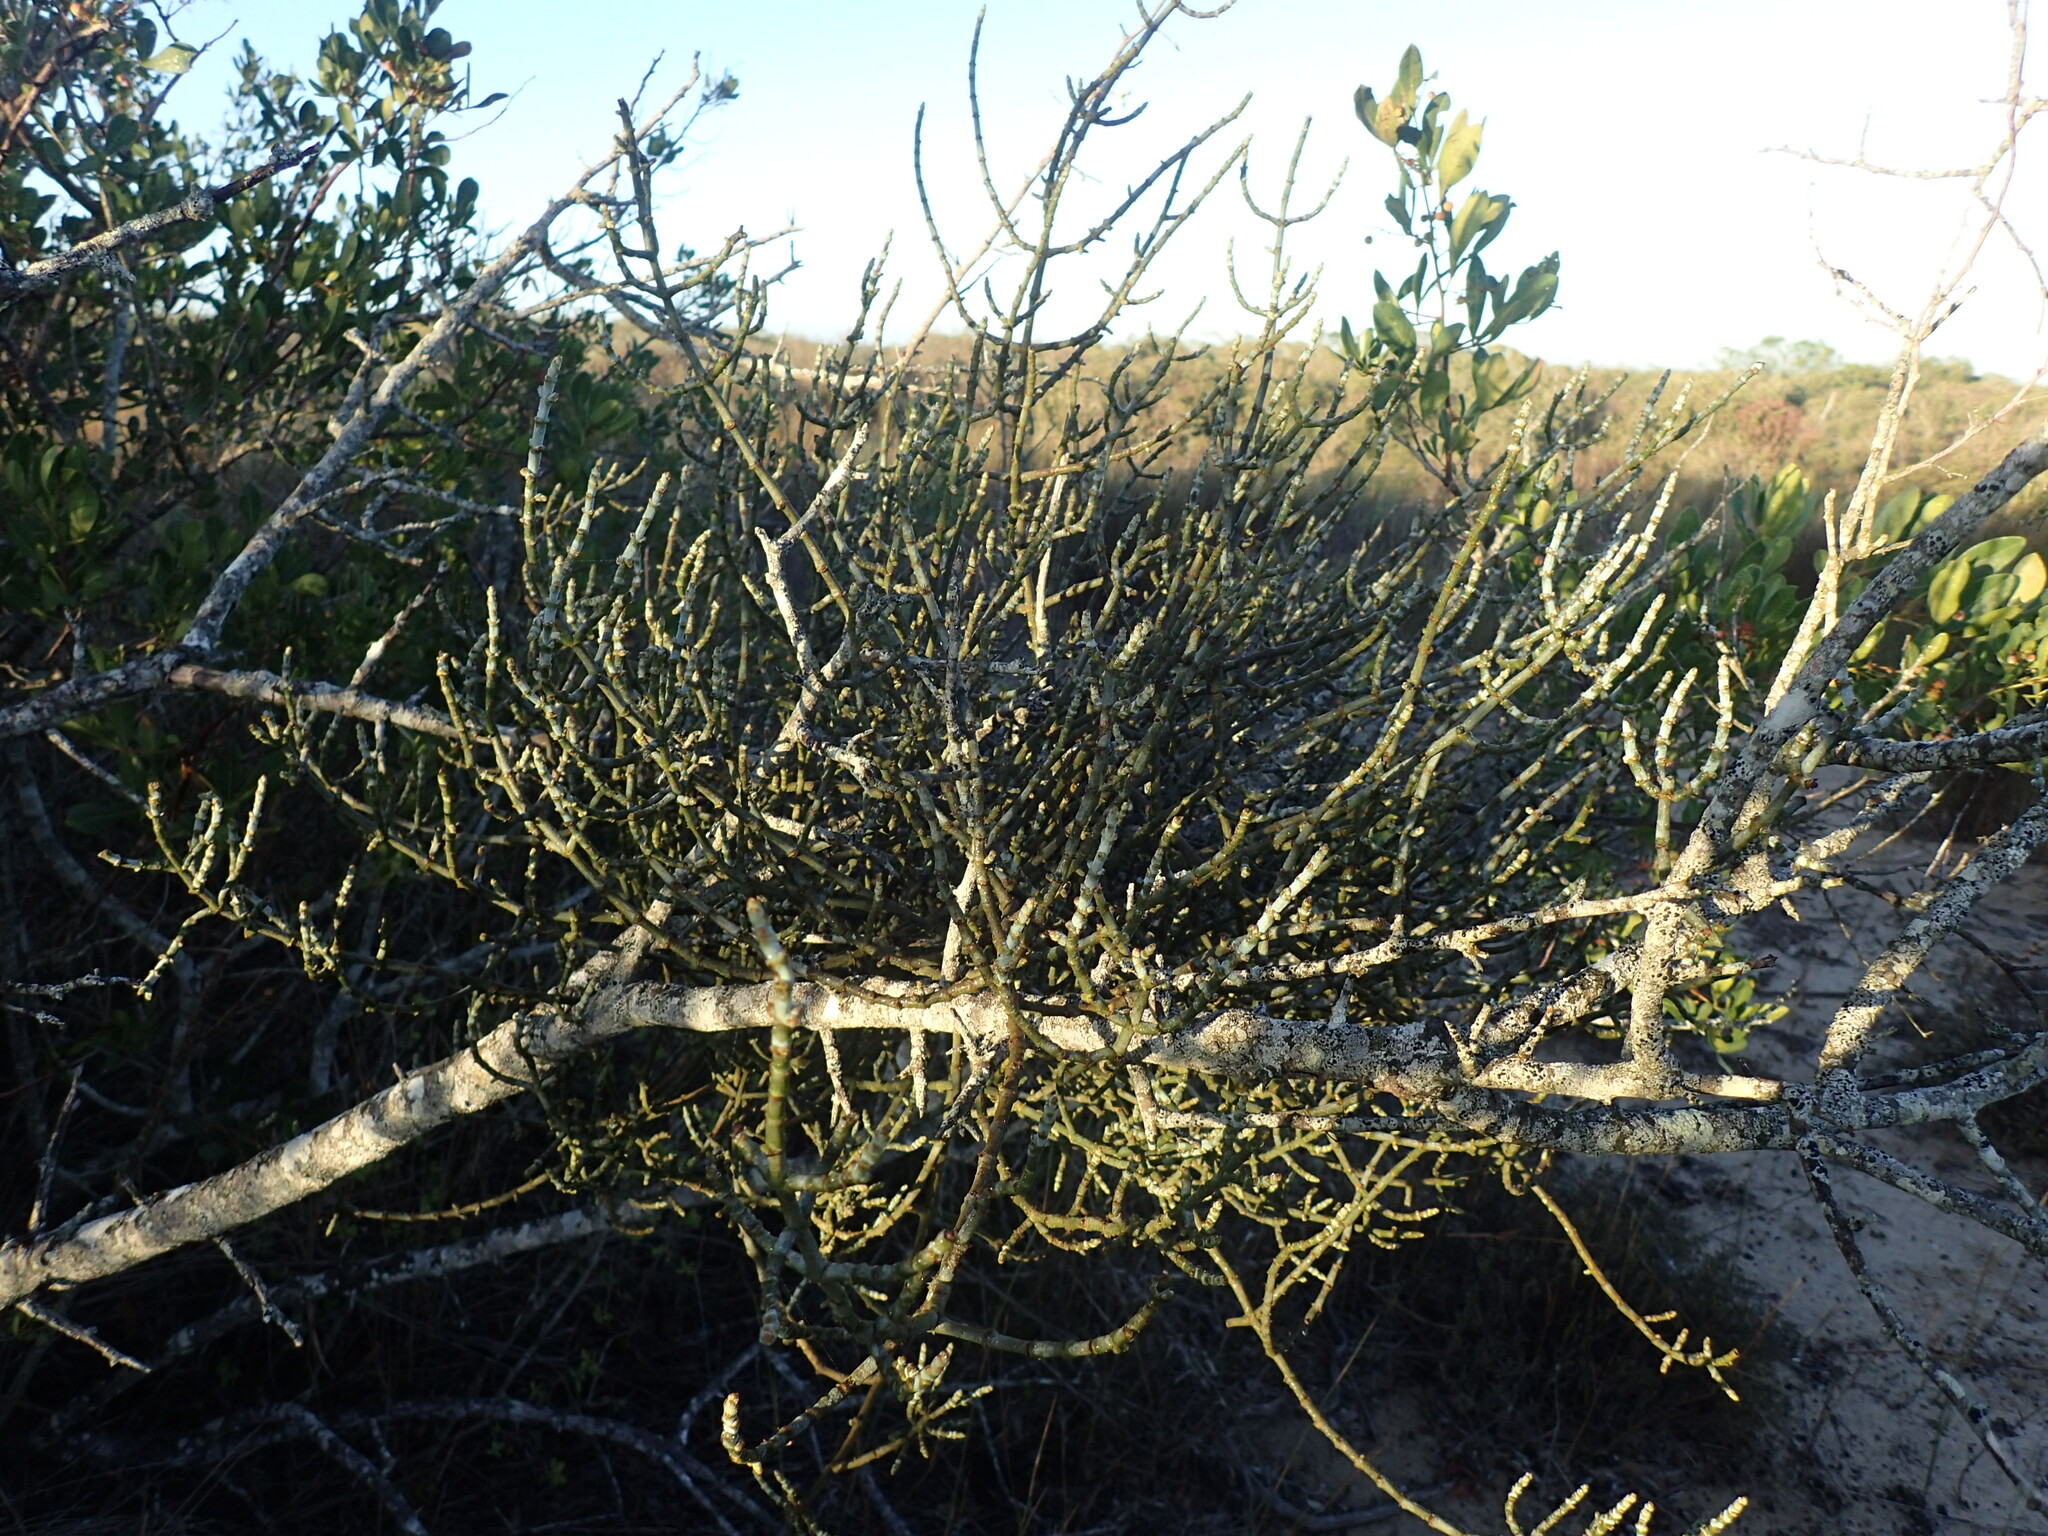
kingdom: Plantae
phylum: Tracheophyta
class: Magnoliopsida
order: Santalales
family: Viscaceae
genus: Viscum
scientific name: Viscum capense
